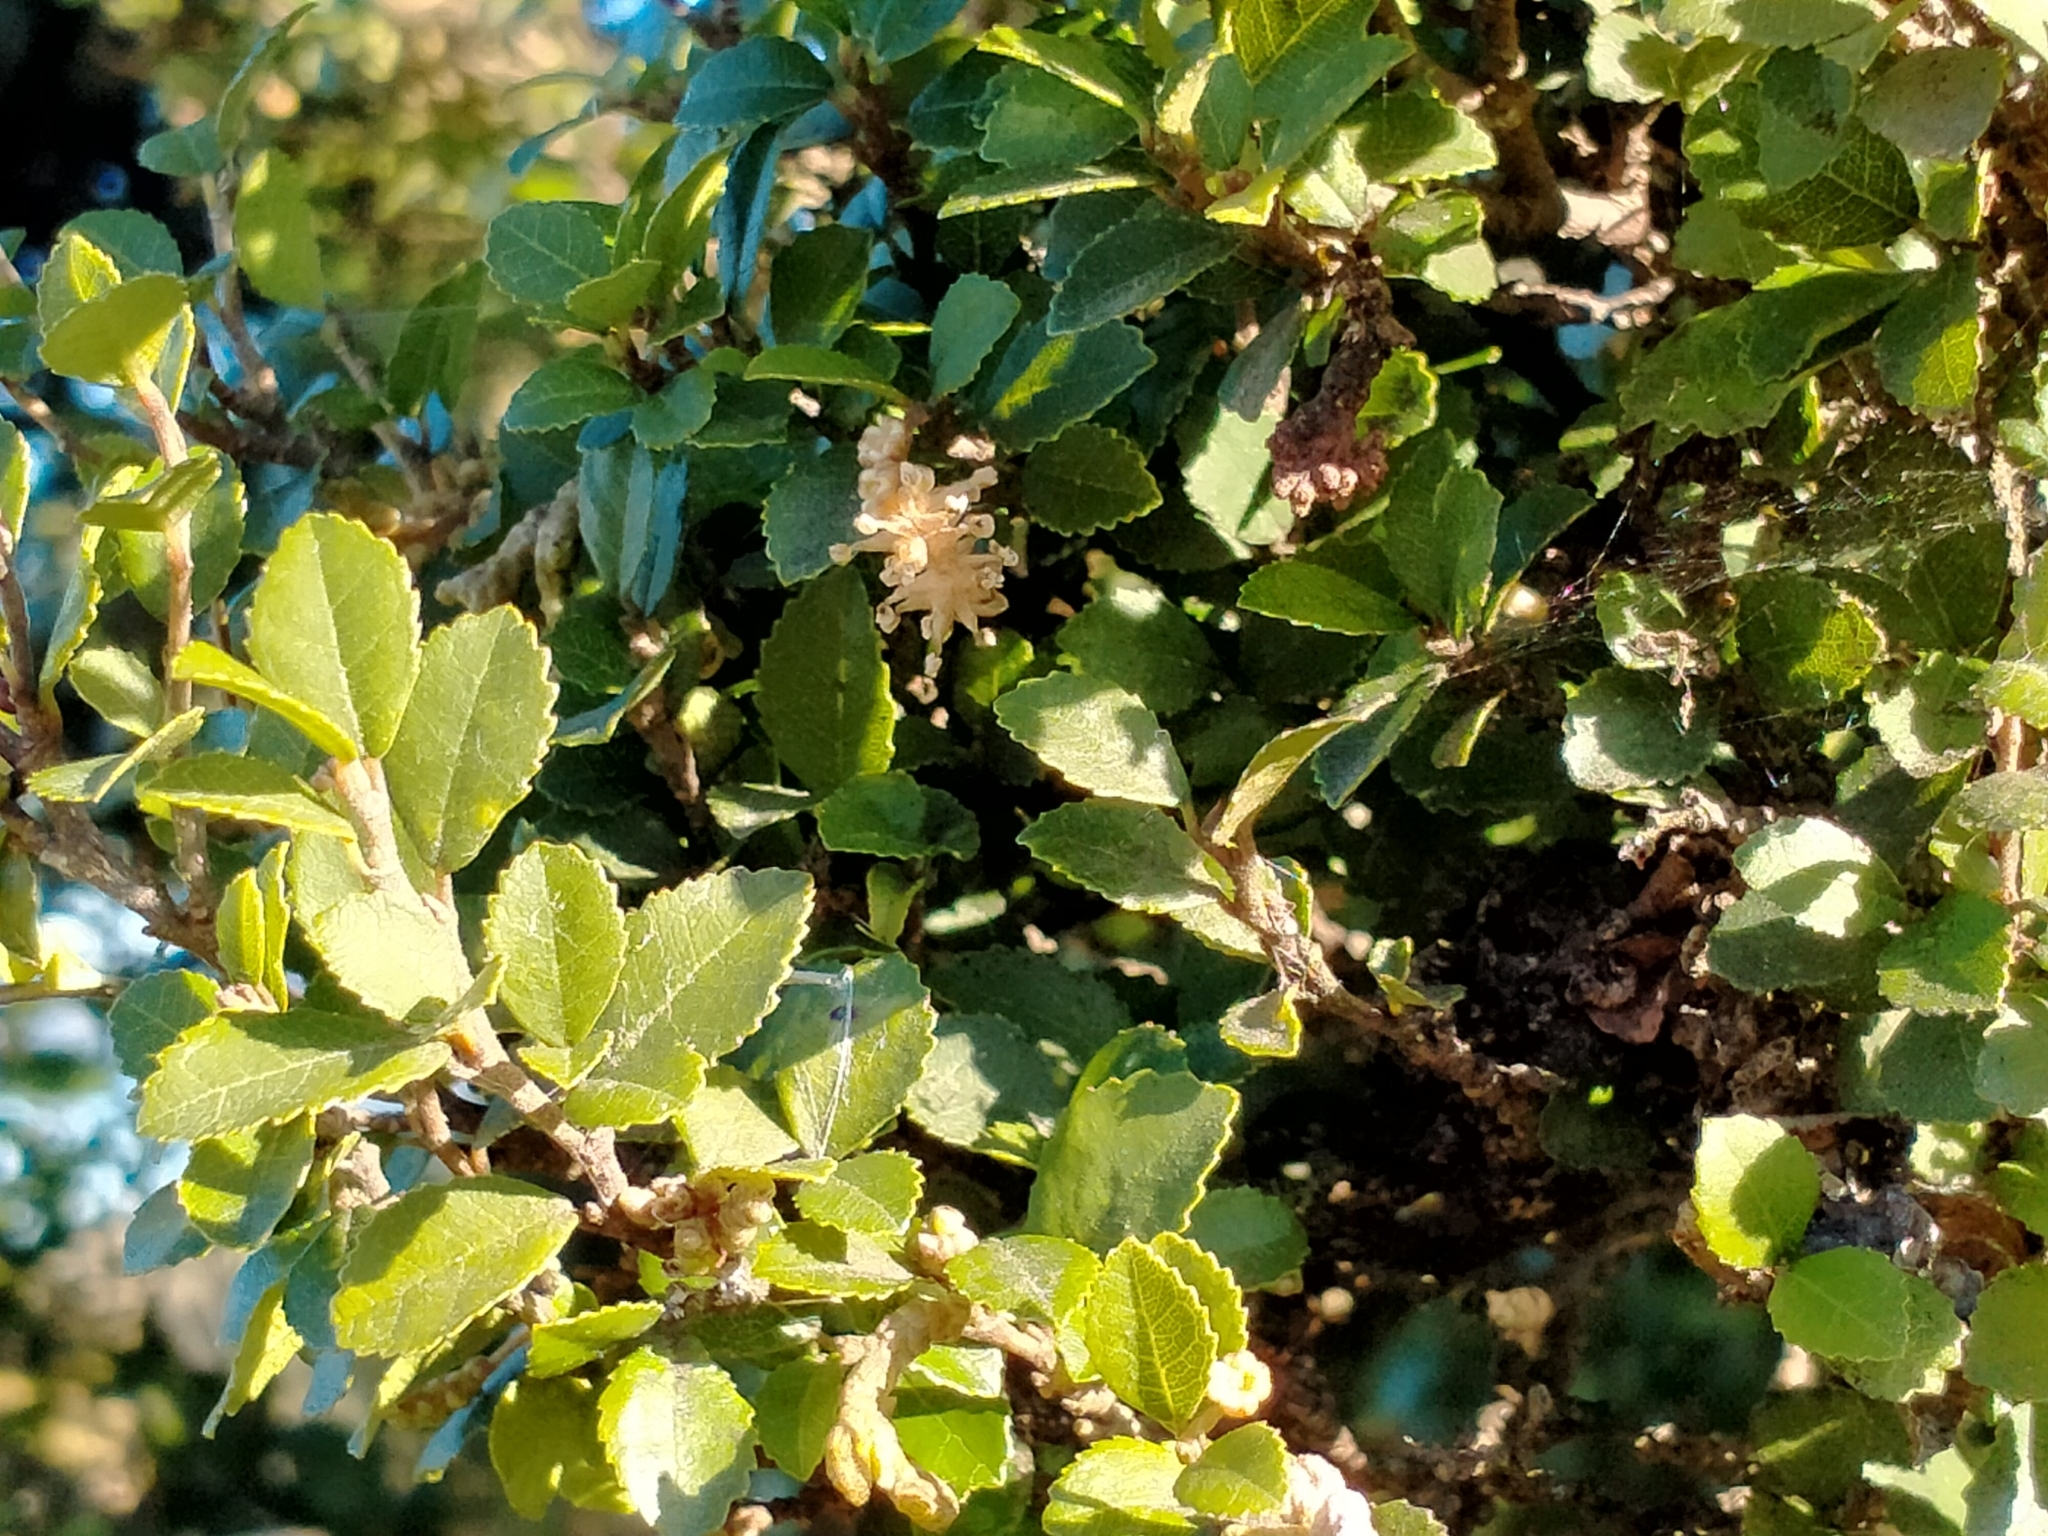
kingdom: Plantae
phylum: Tracheophyta
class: Magnoliopsida
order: Rosales
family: Moraceae
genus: Paratrophis
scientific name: Paratrophis microphylla
